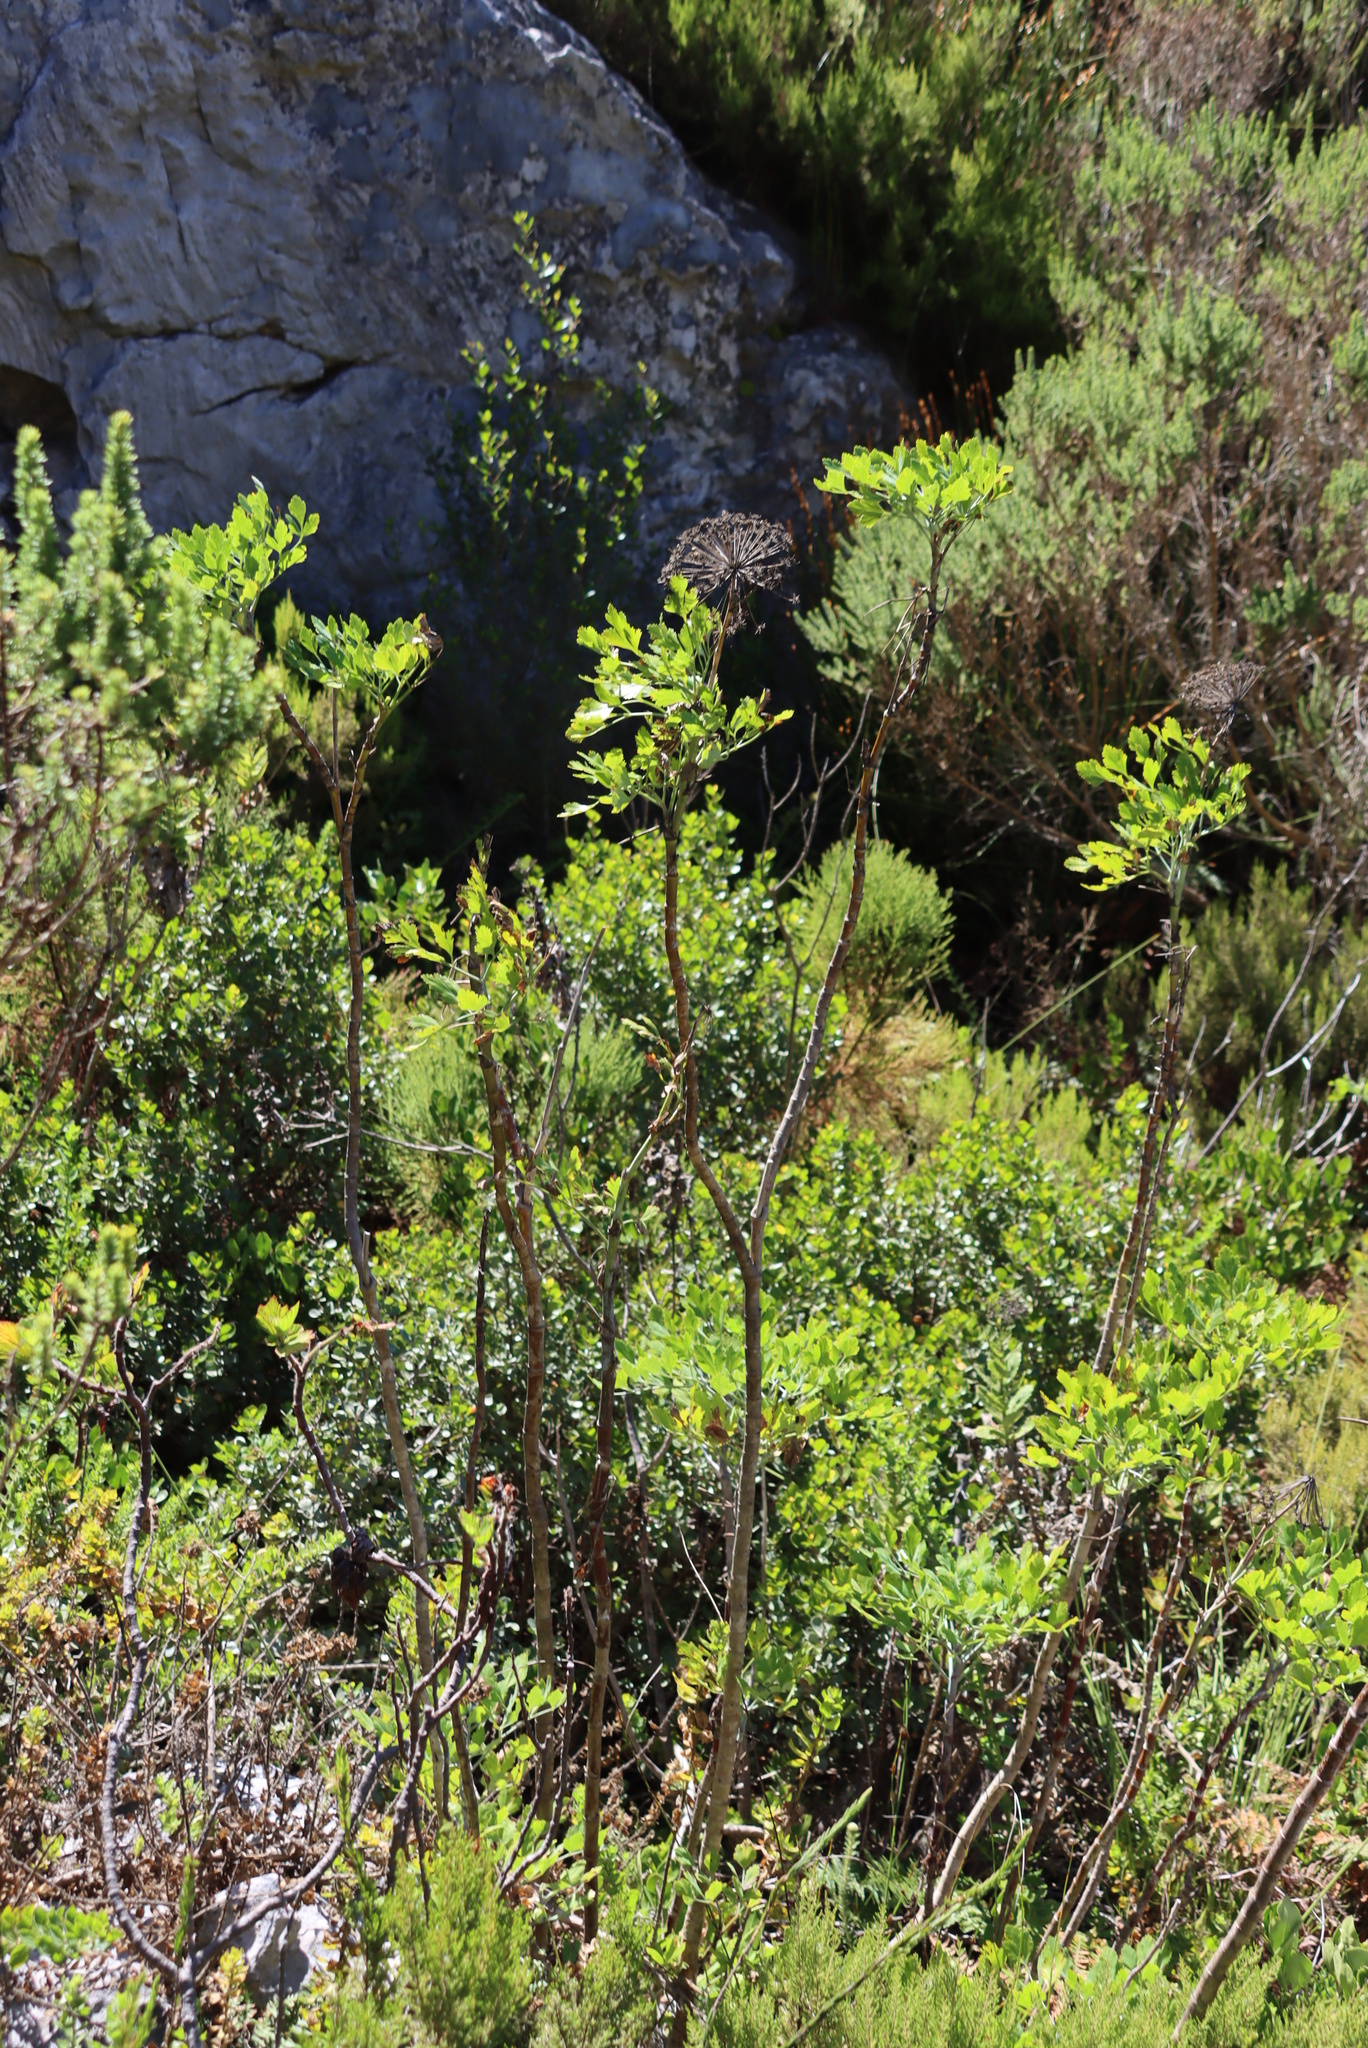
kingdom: Plantae
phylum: Tracheophyta
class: Magnoliopsida
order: Apiales
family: Apiaceae
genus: Notobubon
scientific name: Notobubon galbanum
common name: Blisterbush
